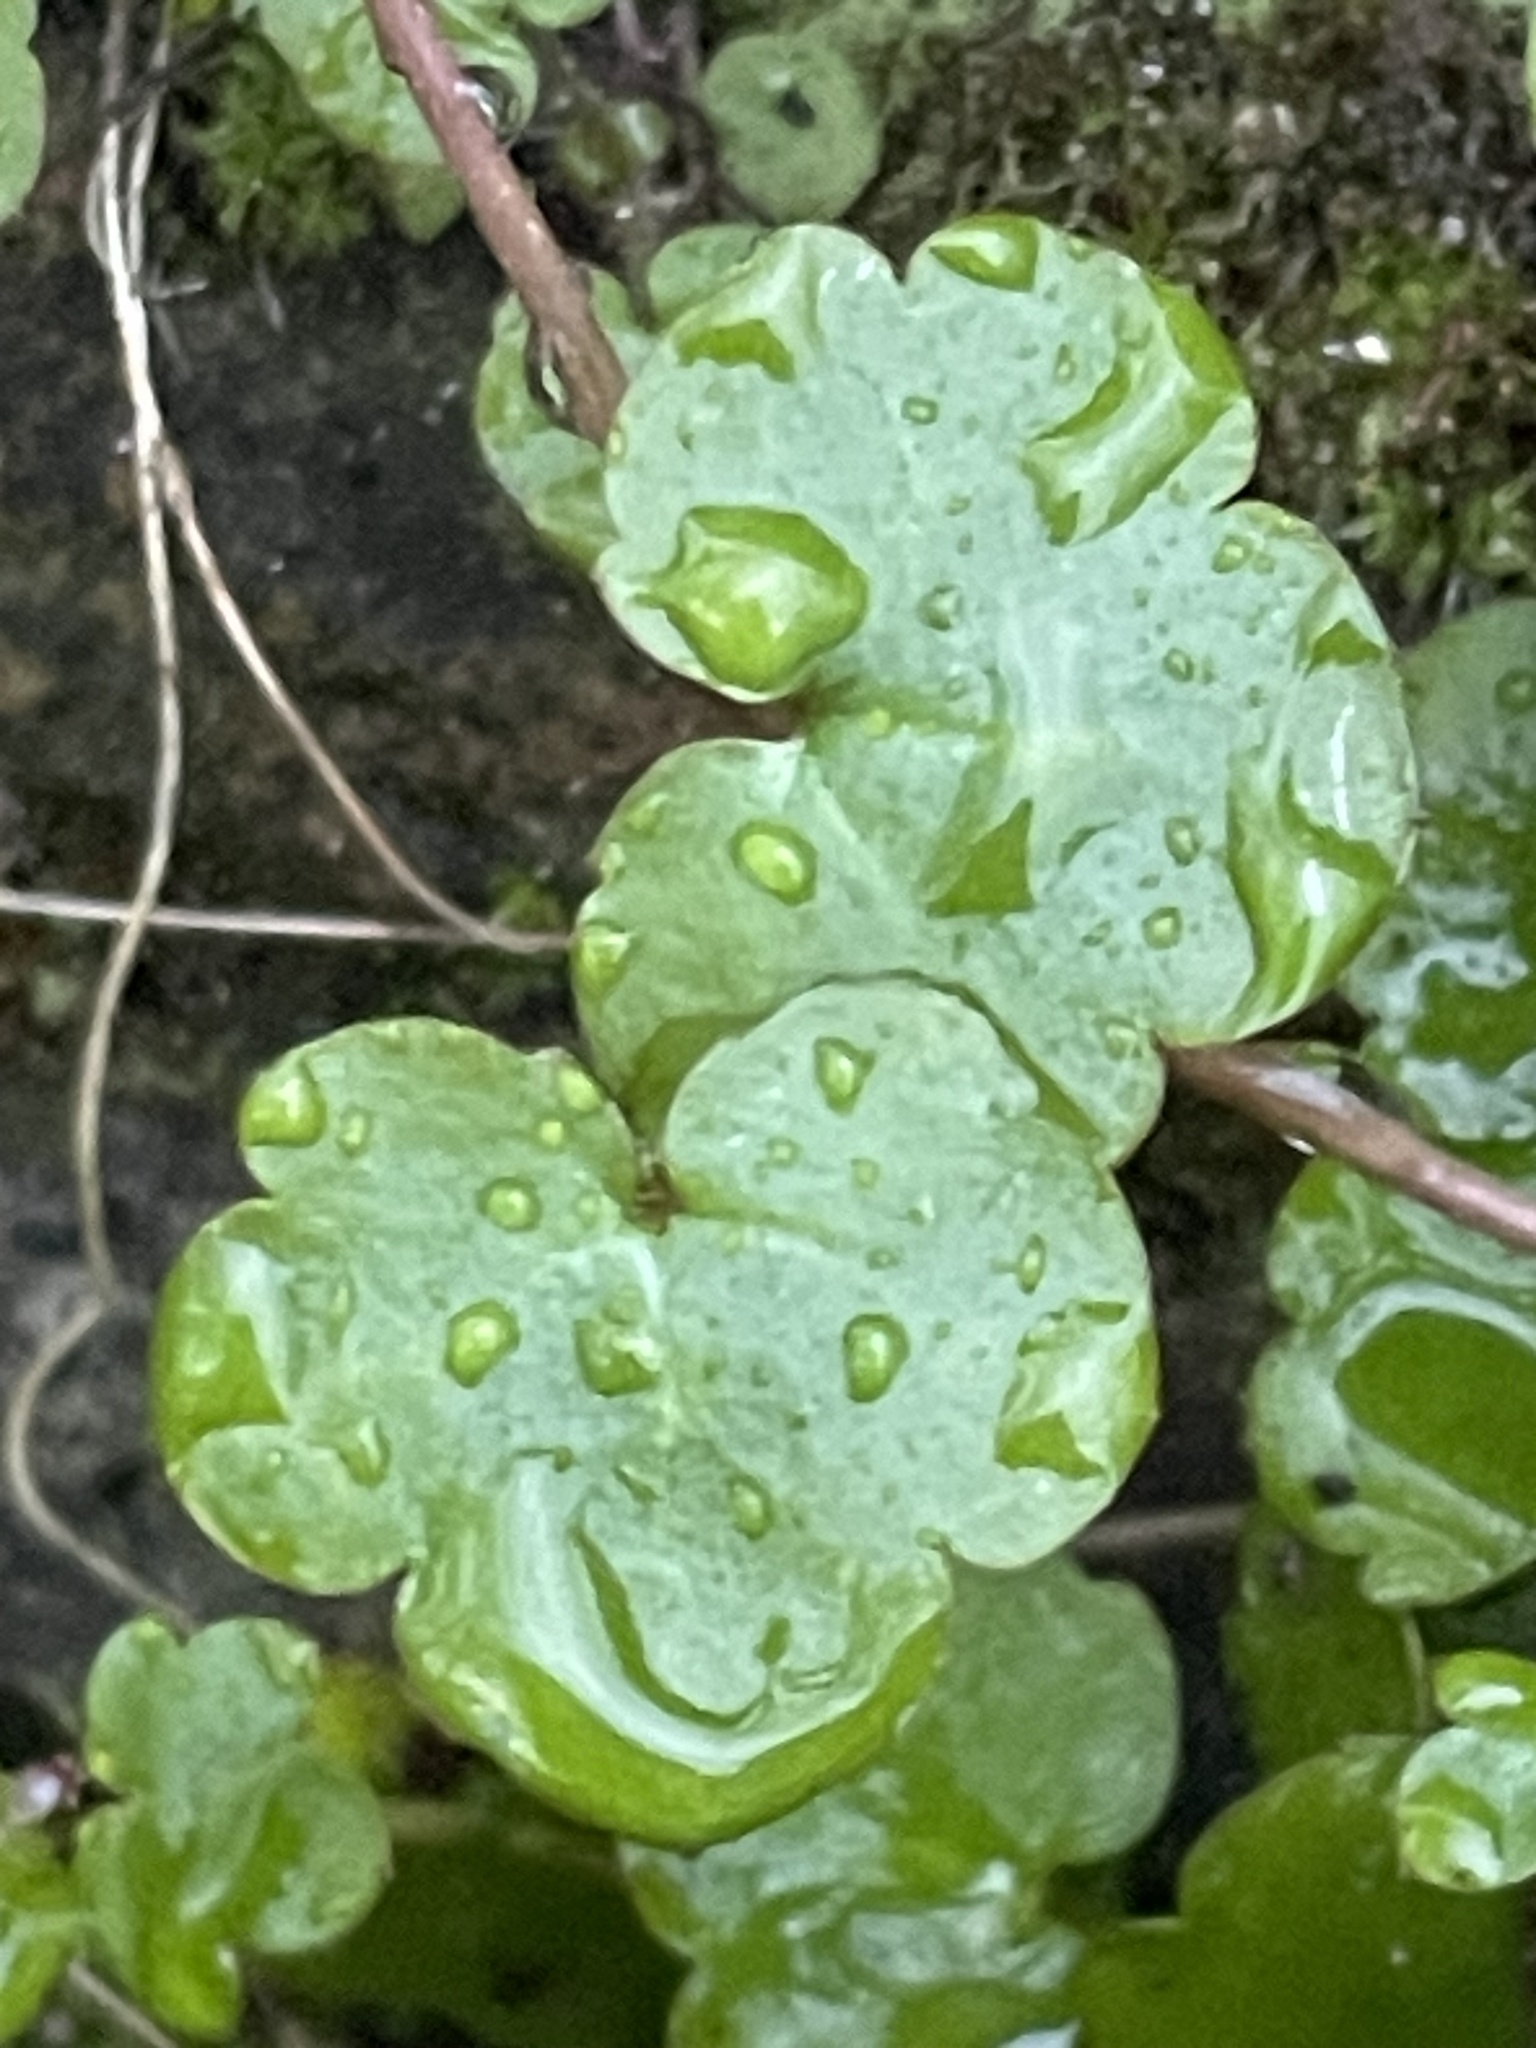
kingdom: Plantae
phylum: Tracheophyta
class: Magnoliopsida
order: Lamiales
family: Plantaginaceae
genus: Cymbalaria
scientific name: Cymbalaria muralis
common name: Ivy-leaved toadflax
